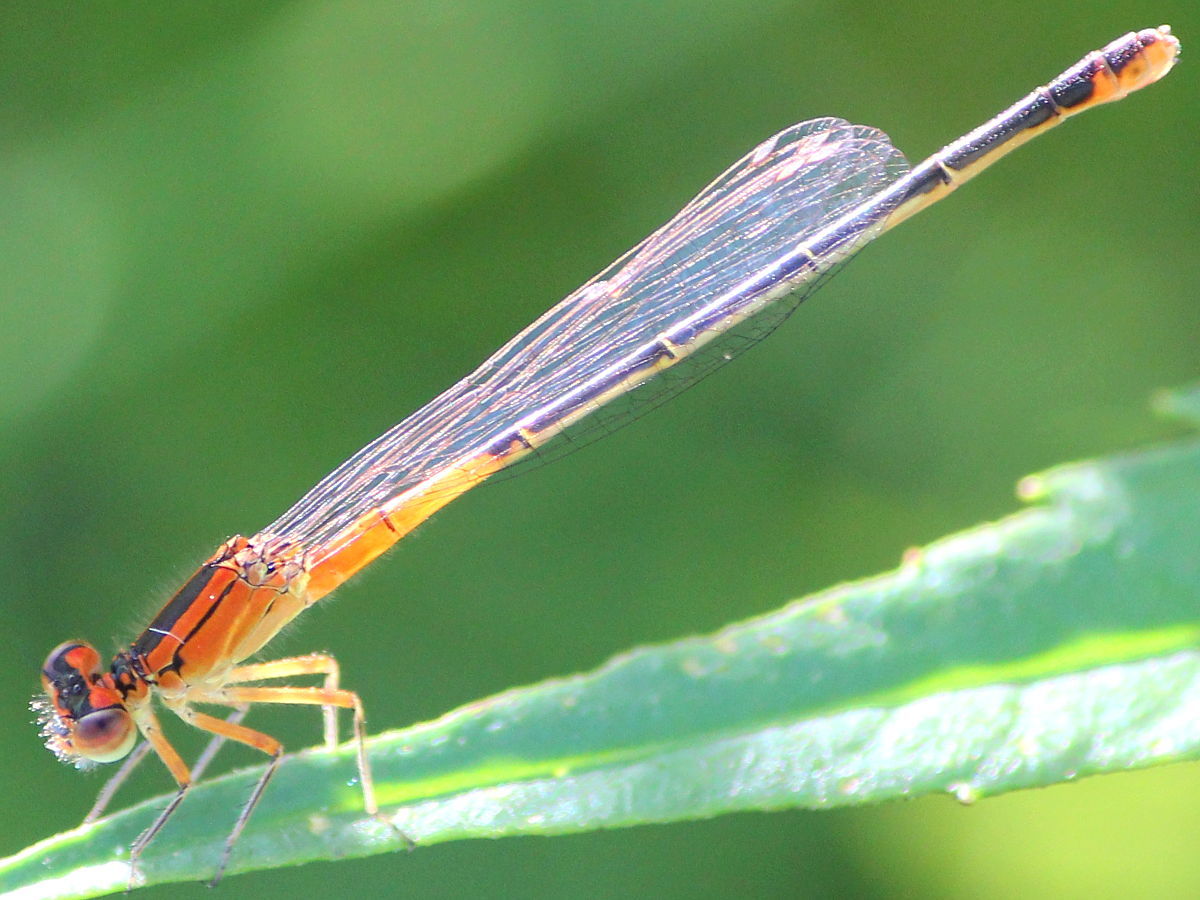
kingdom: Animalia
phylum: Arthropoda
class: Insecta
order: Odonata
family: Coenagrionidae
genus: Ischnura
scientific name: Ischnura verticalis
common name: Eastern forktail
